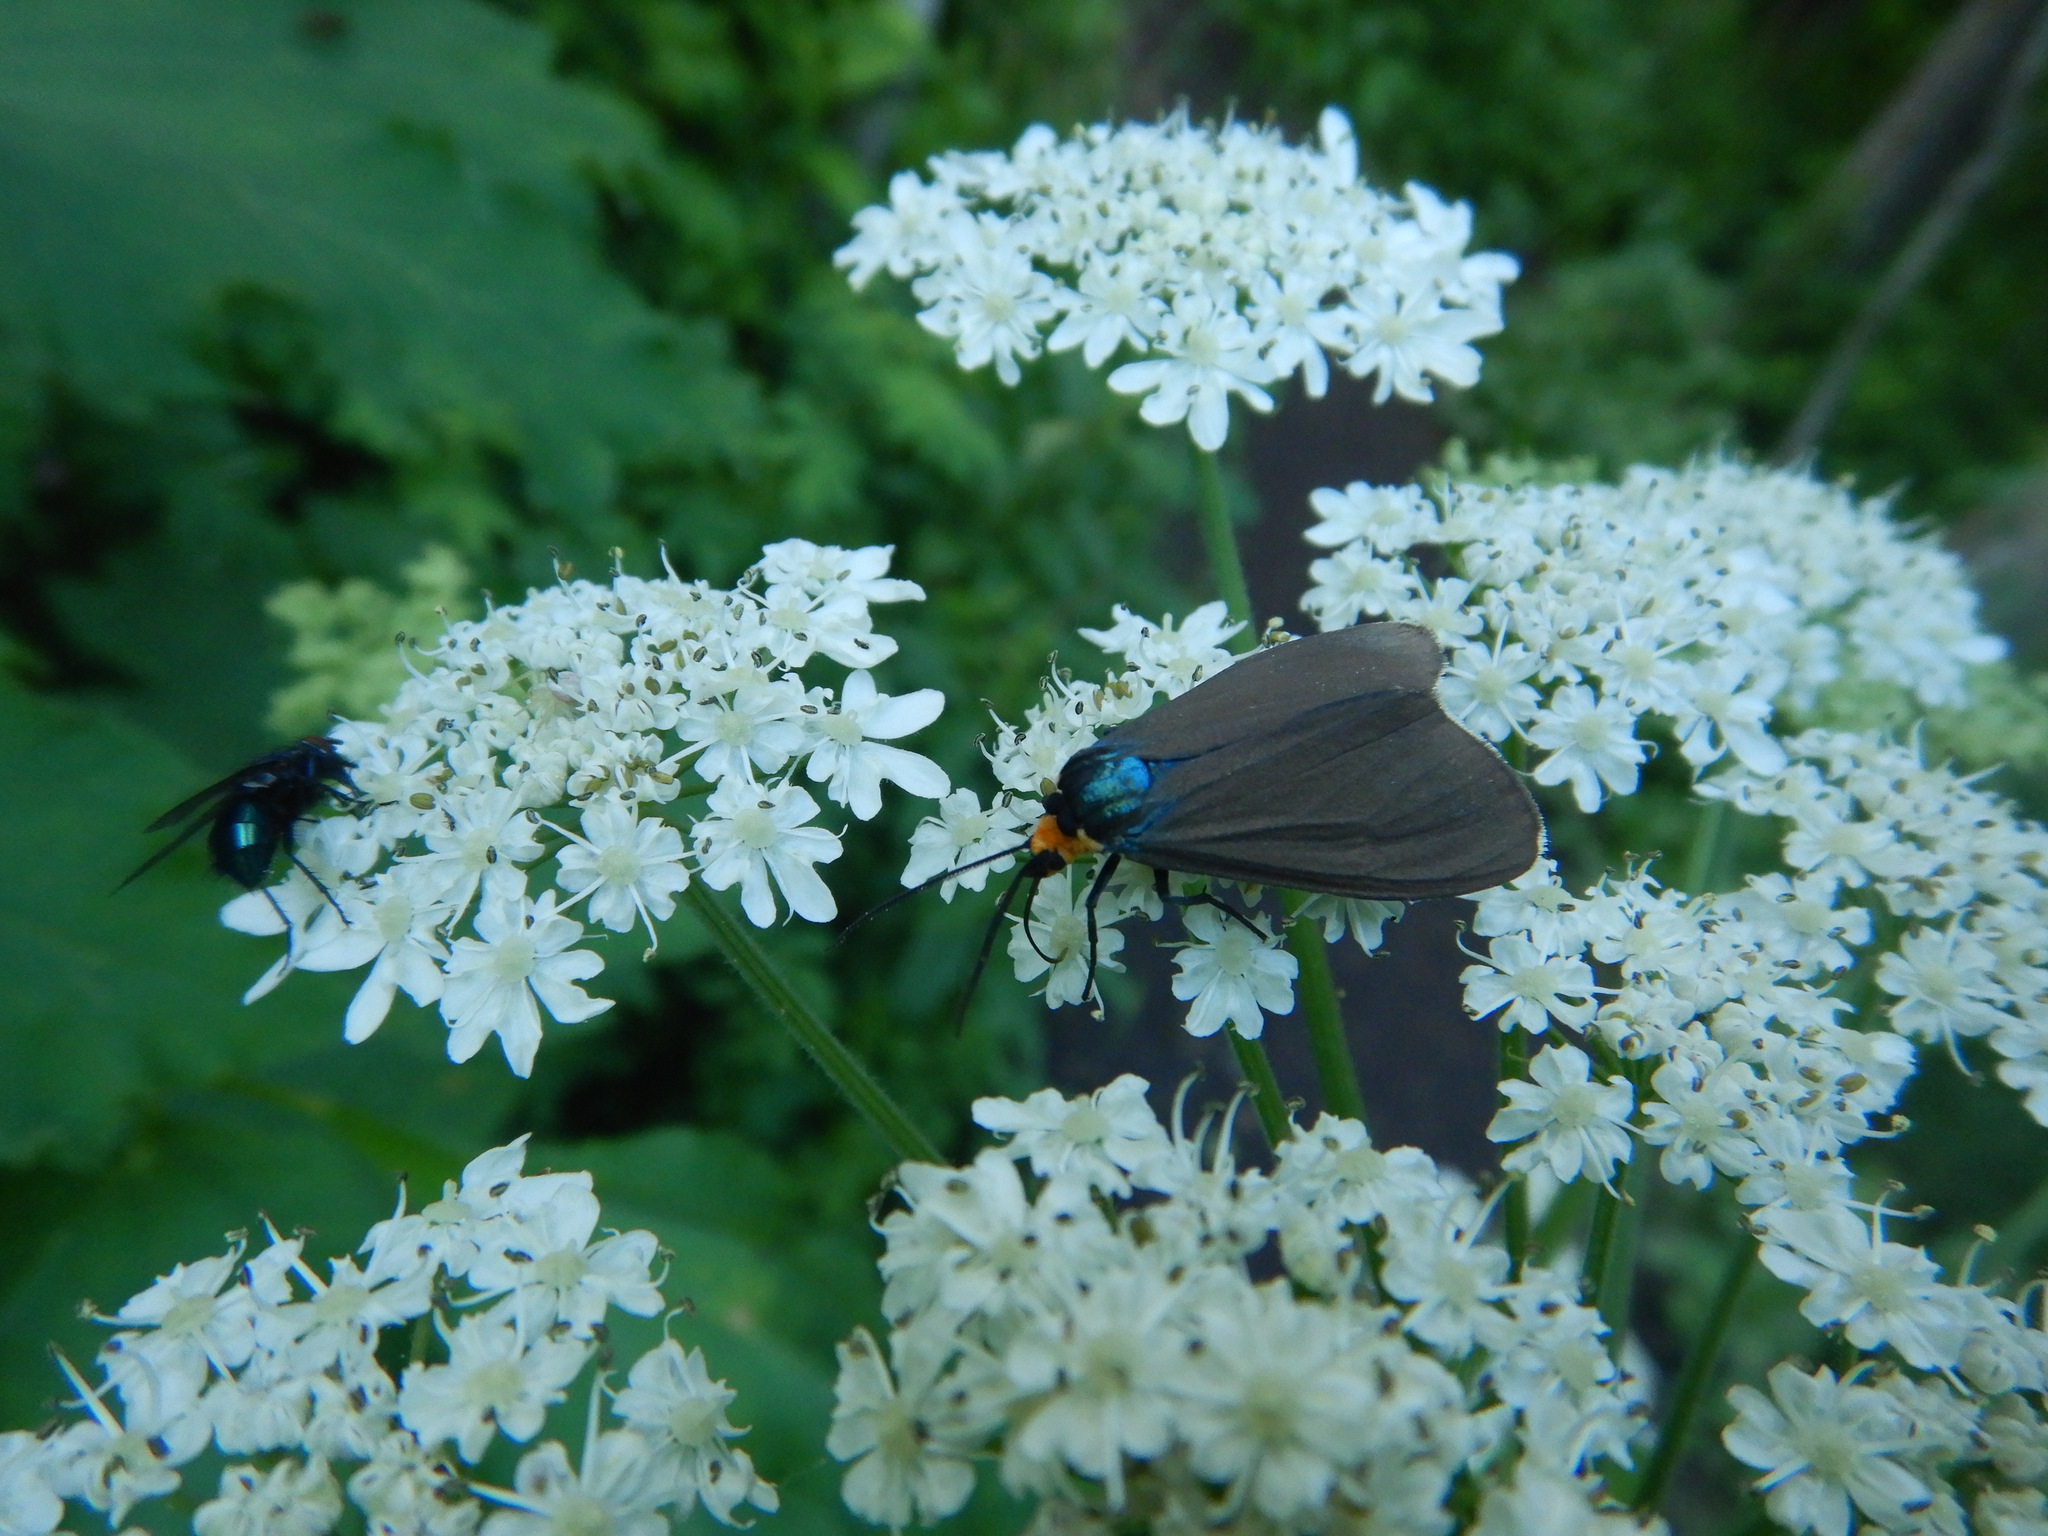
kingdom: Animalia
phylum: Arthropoda
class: Insecta
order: Lepidoptera
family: Erebidae
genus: Ctenucha
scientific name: Ctenucha virginica
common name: Virginia ctenucha moth
